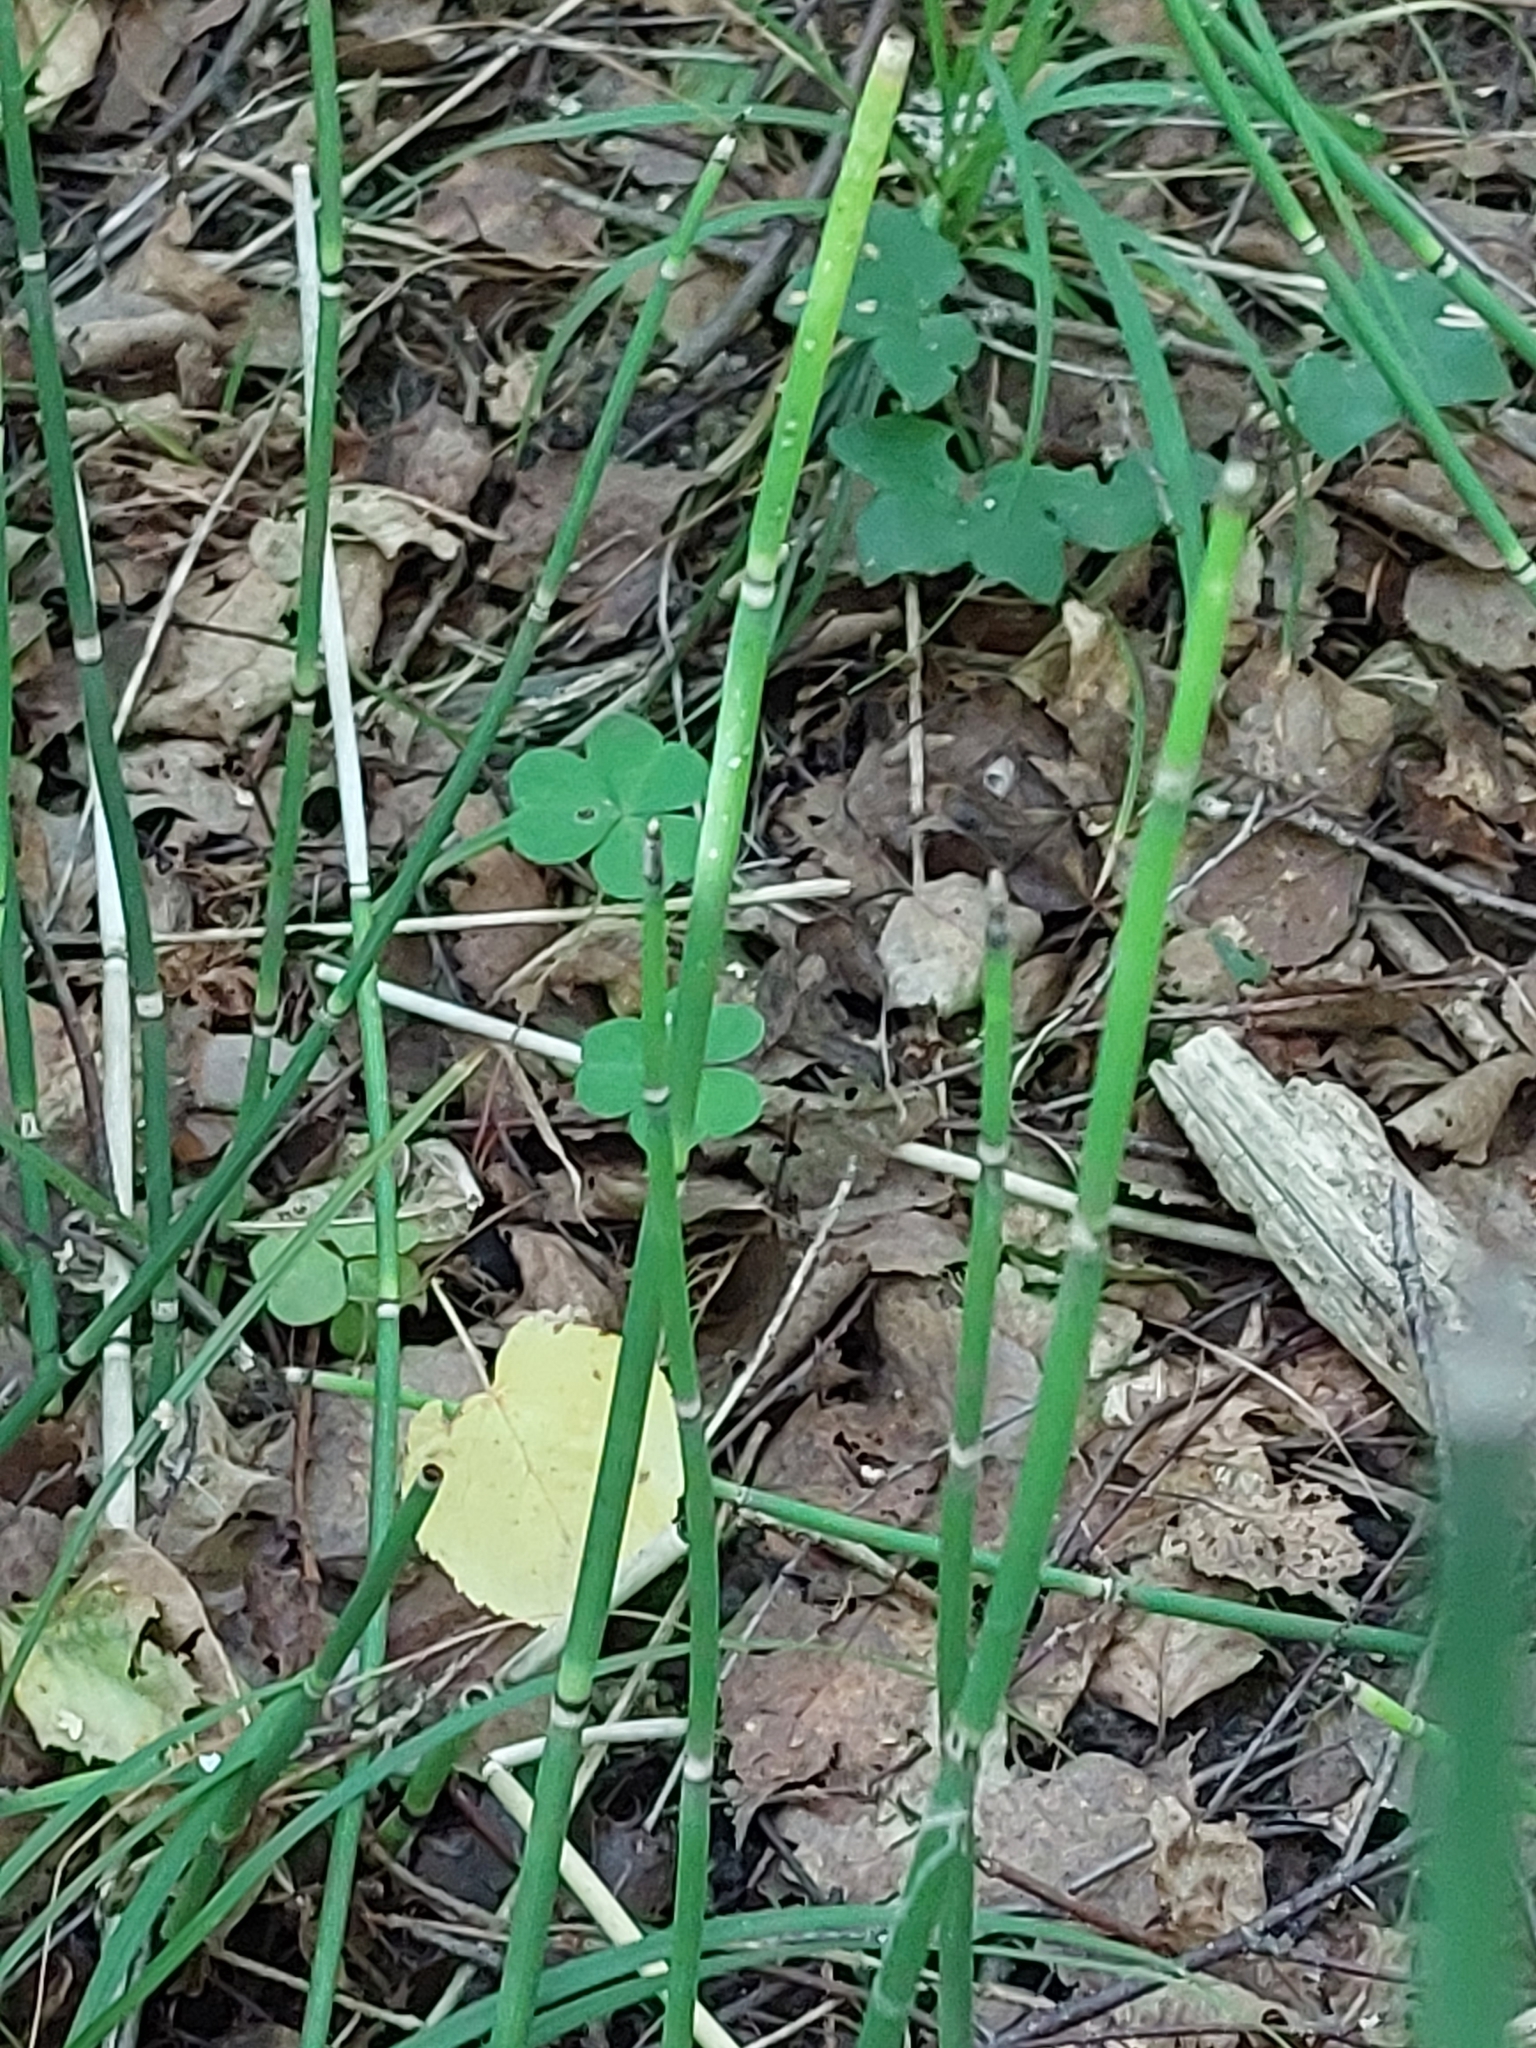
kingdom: Plantae
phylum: Tracheophyta
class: Polypodiopsida
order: Equisetales
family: Equisetaceae
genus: Equisetum
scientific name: Equisetum hyemale
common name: Rough horsetail
